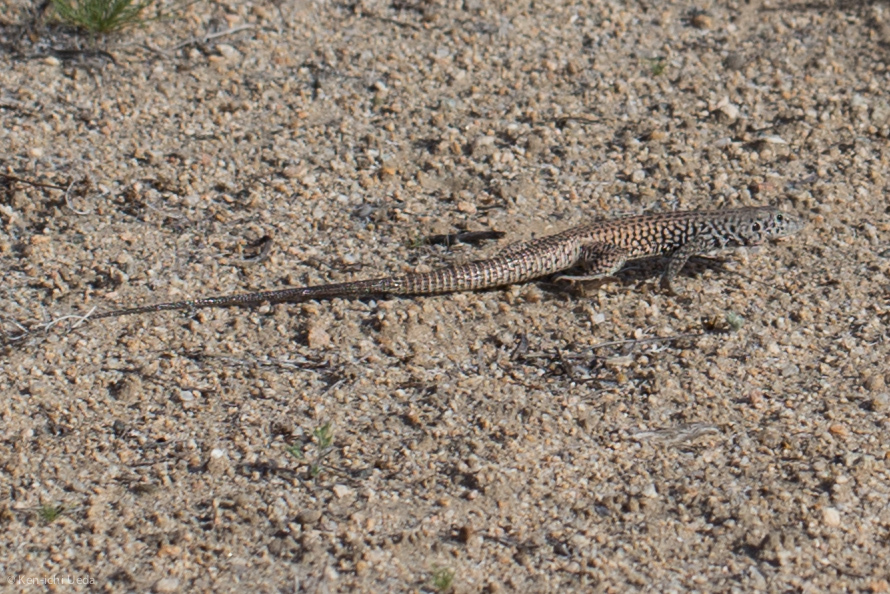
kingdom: Animalia
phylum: Chordata
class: Squamata
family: Teiidae
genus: Aspidoscelis
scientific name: Aspidoscelis tigris
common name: Tiger whiptail
